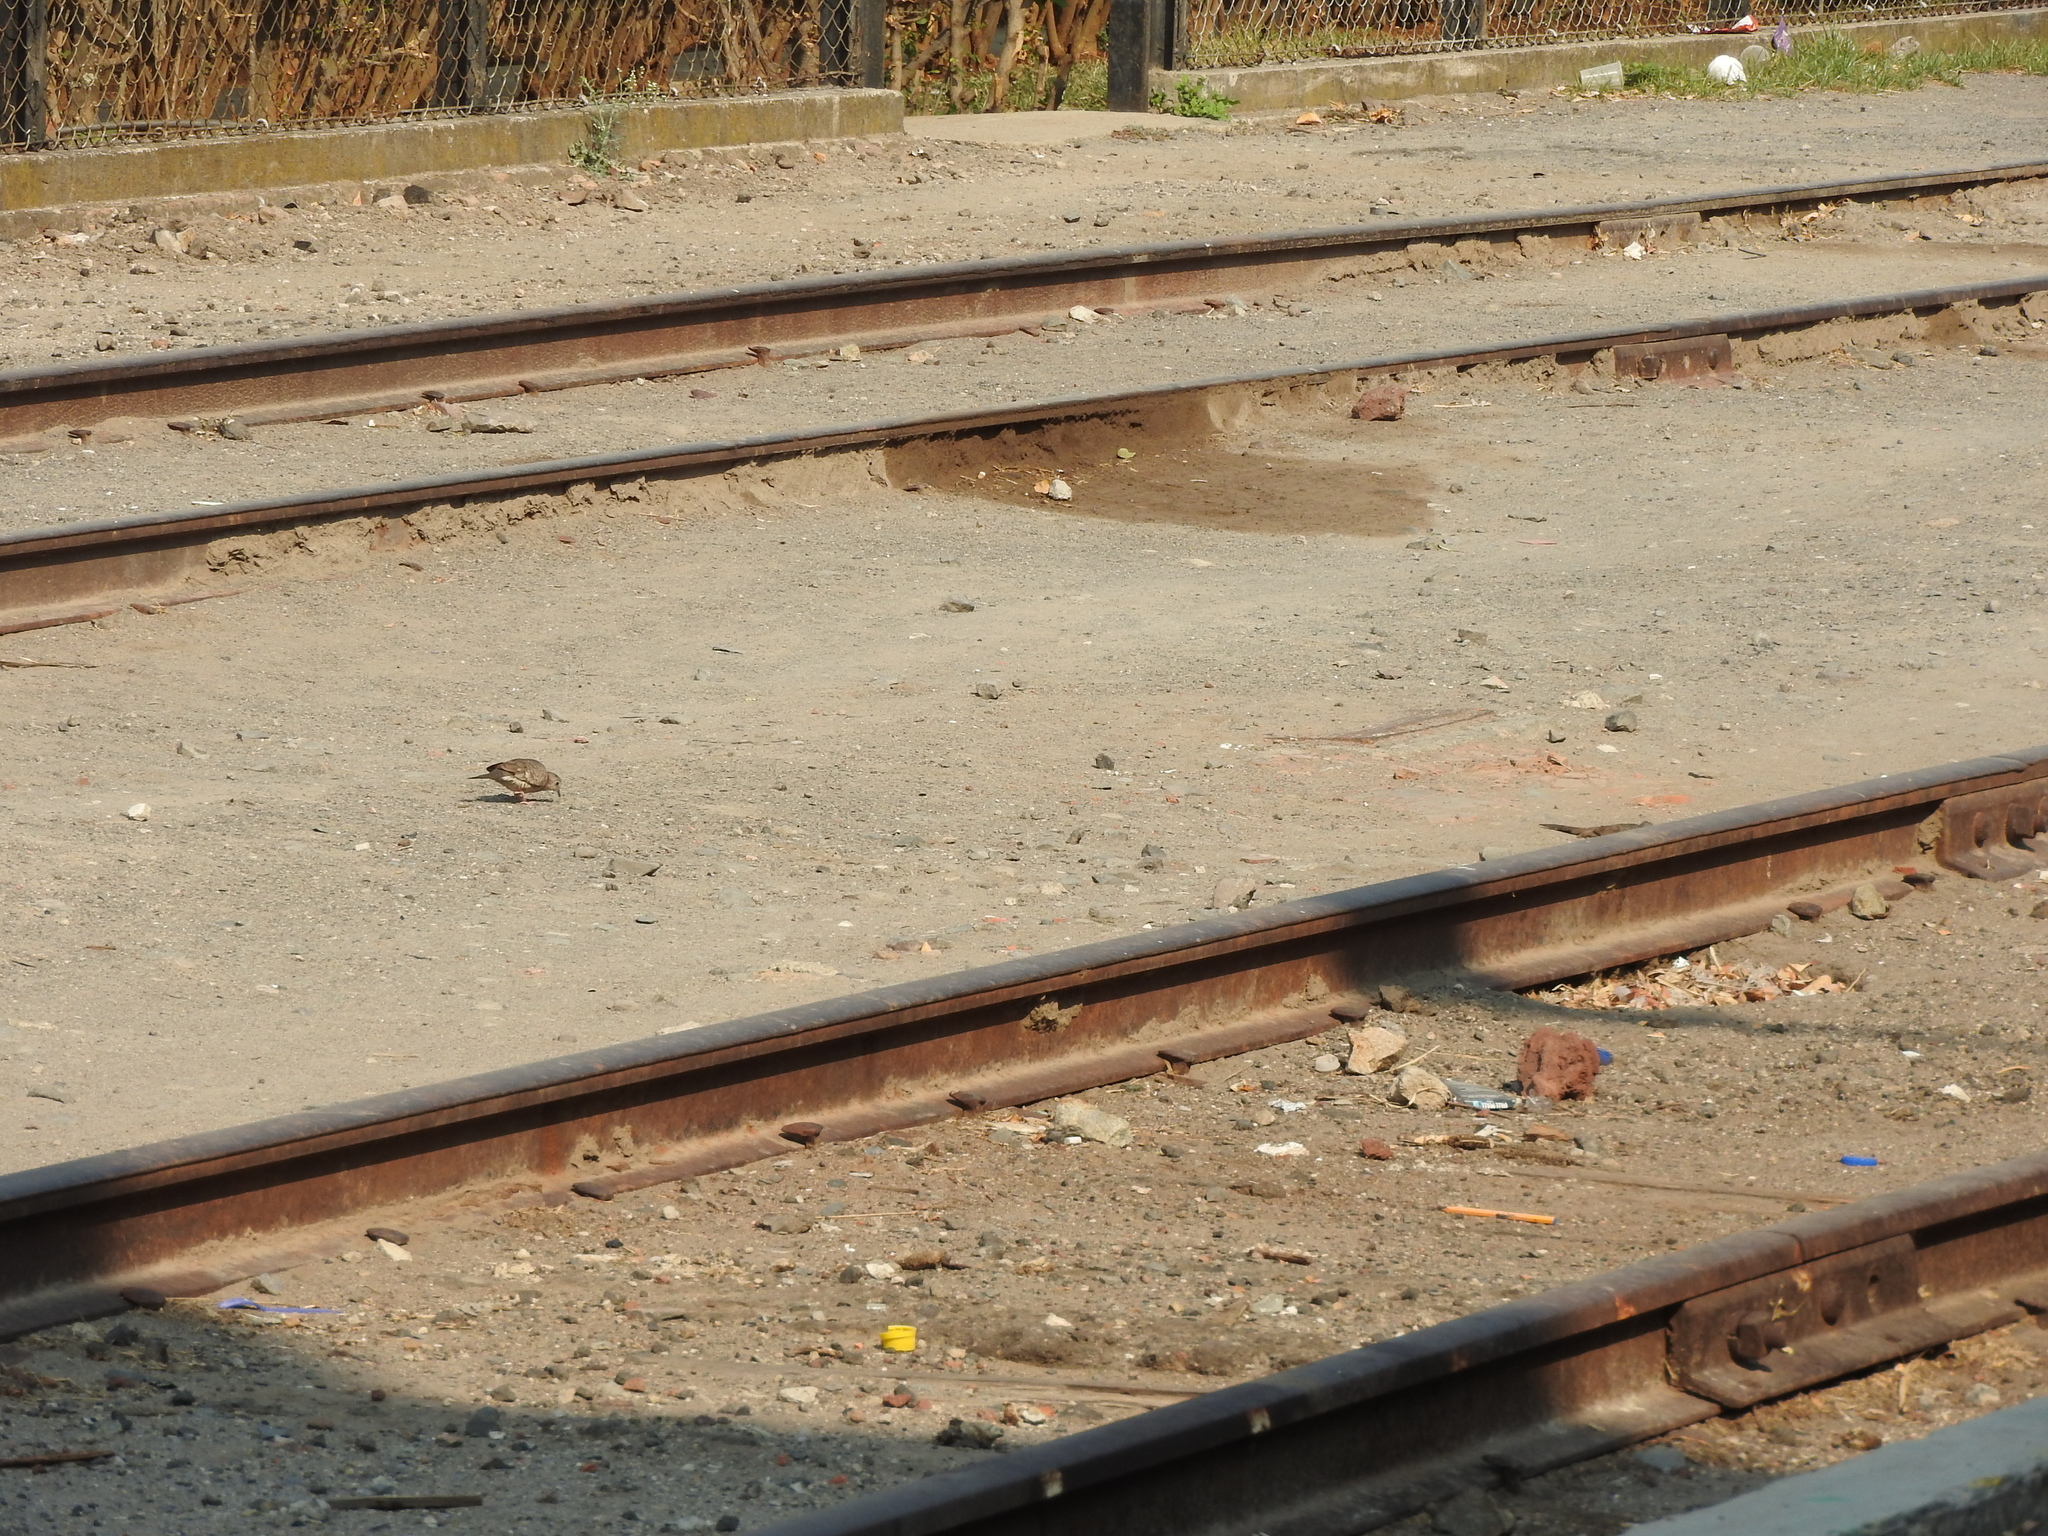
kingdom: Animalia
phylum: Chordata
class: Aves
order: Columbiformes
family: Columbidae
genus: Columbina
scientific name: Columbina inca
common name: Inca dove
